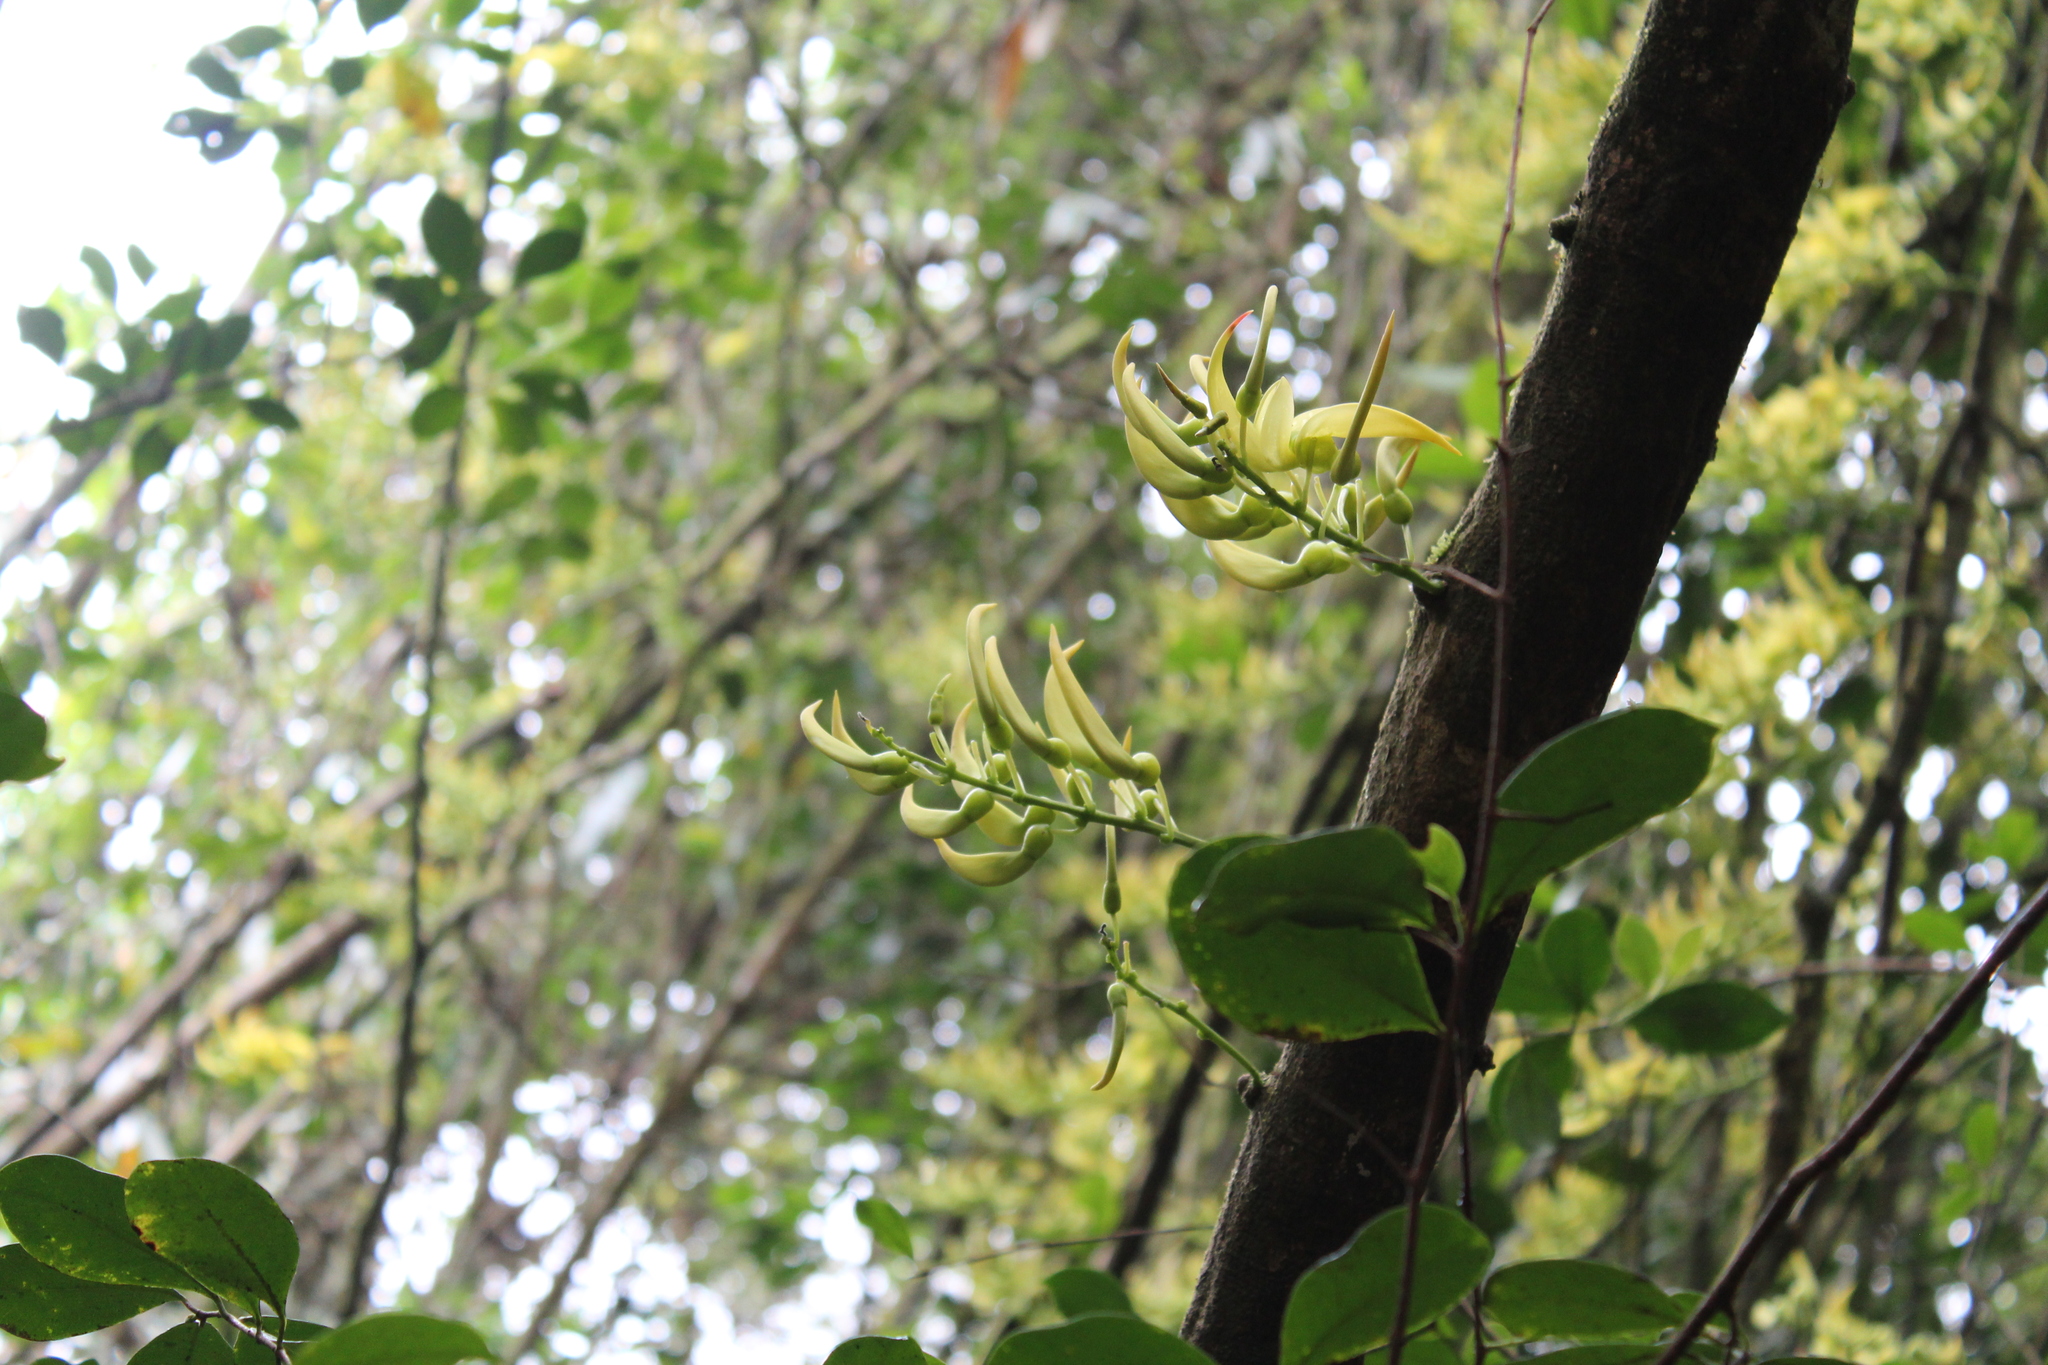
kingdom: Plantae
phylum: Tracheophyta
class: Magnoliopsida
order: Fabales
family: Fabaceae
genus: Strongylodon
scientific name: Strongylodon craveniae
